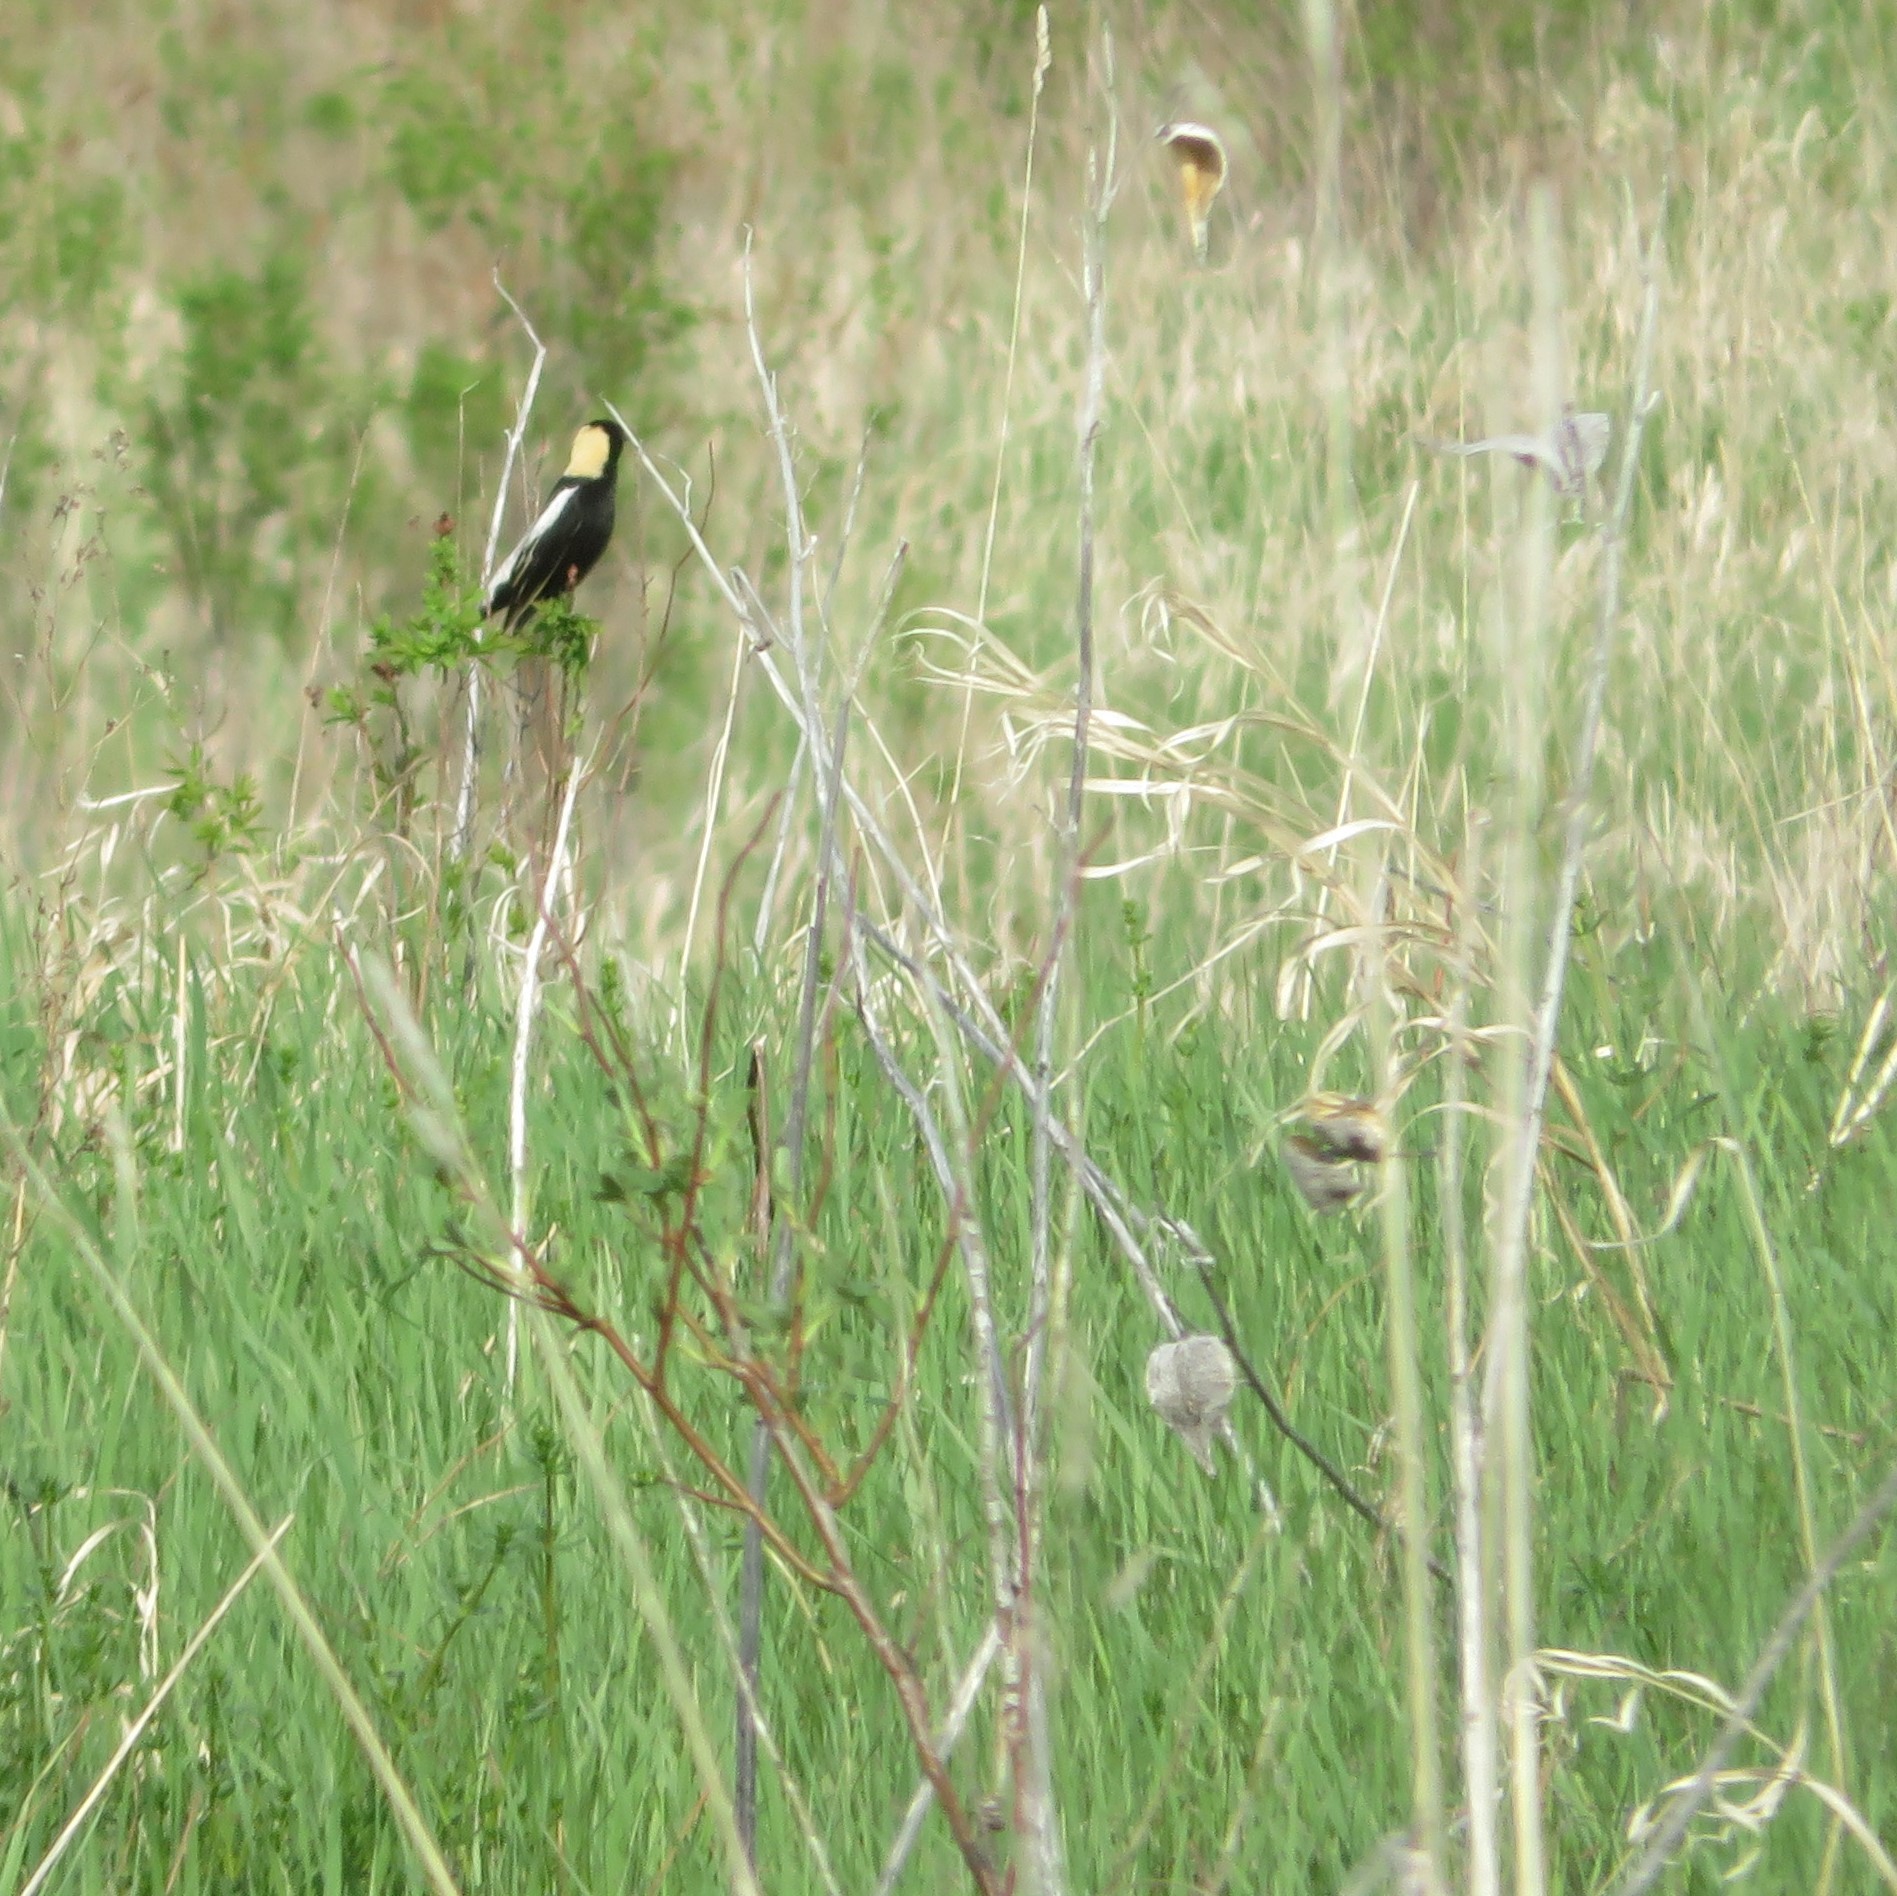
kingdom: Animalia
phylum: Chordata
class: Aves
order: Passeriformes
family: Icteridae
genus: Dolichonyx
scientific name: Dolichonyx oryzivorus
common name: Bobolink
